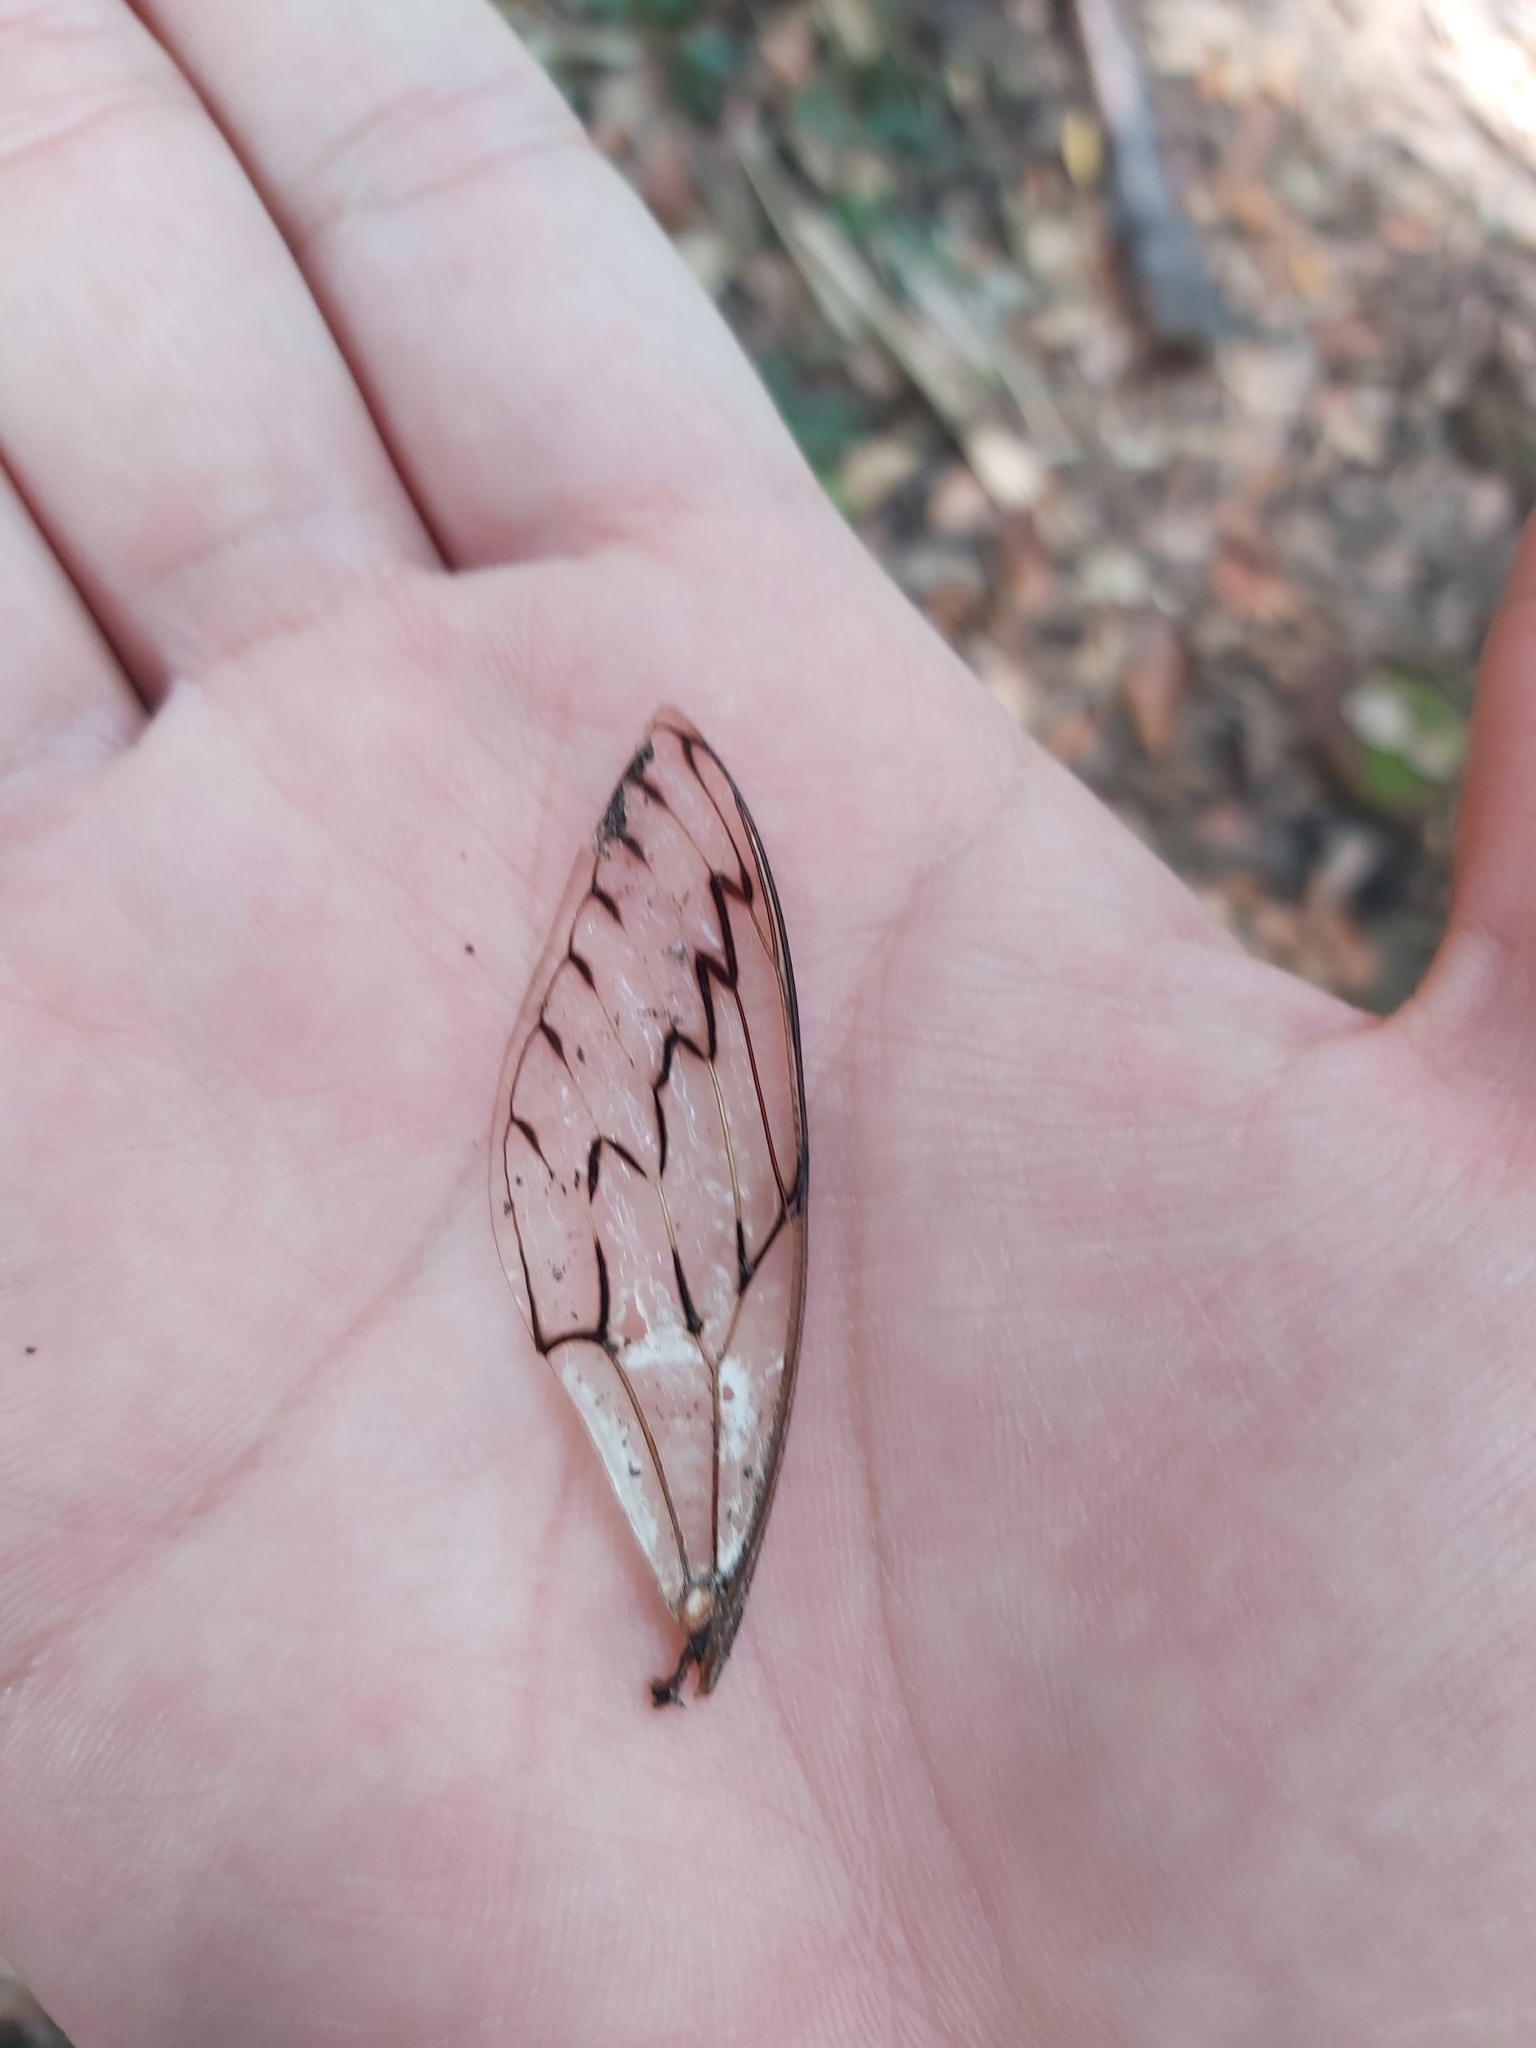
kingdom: Animalia
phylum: Arthropoda
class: Insecta
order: Hemiptera
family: Cicadidae
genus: Henicopsaltria
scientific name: Henicopsaltria eydouxii
